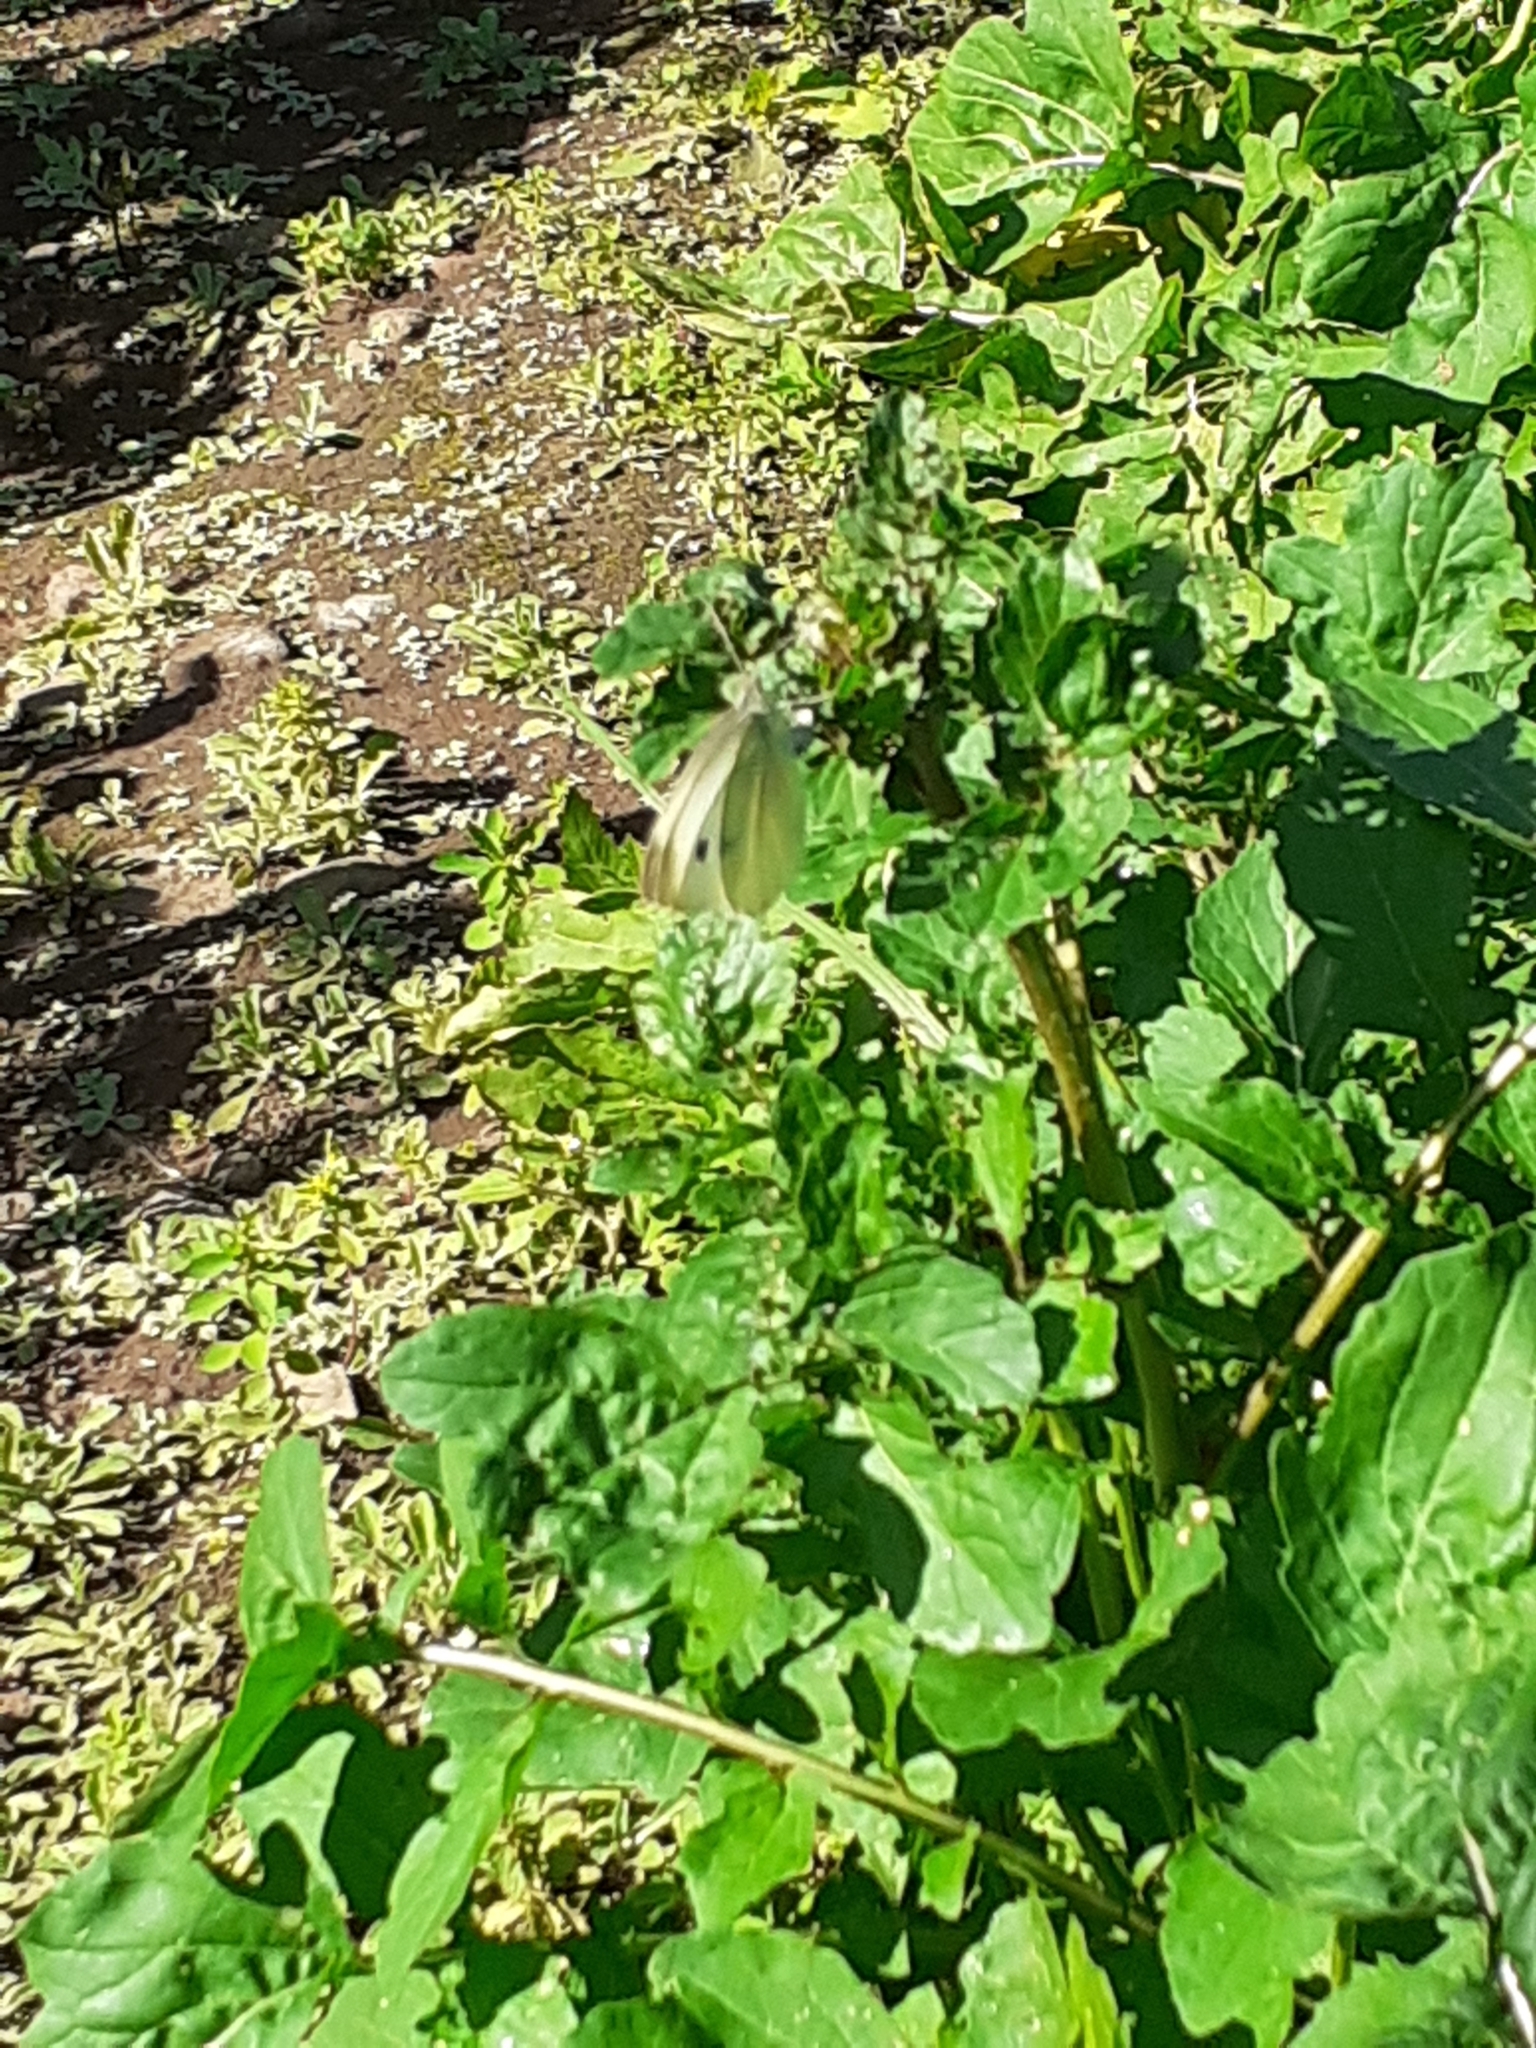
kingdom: Animalia
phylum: Arthropoda
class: Insecta
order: Lepidoptera
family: Pieridae
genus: Pieris
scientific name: Pieris rapae
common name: Small white
